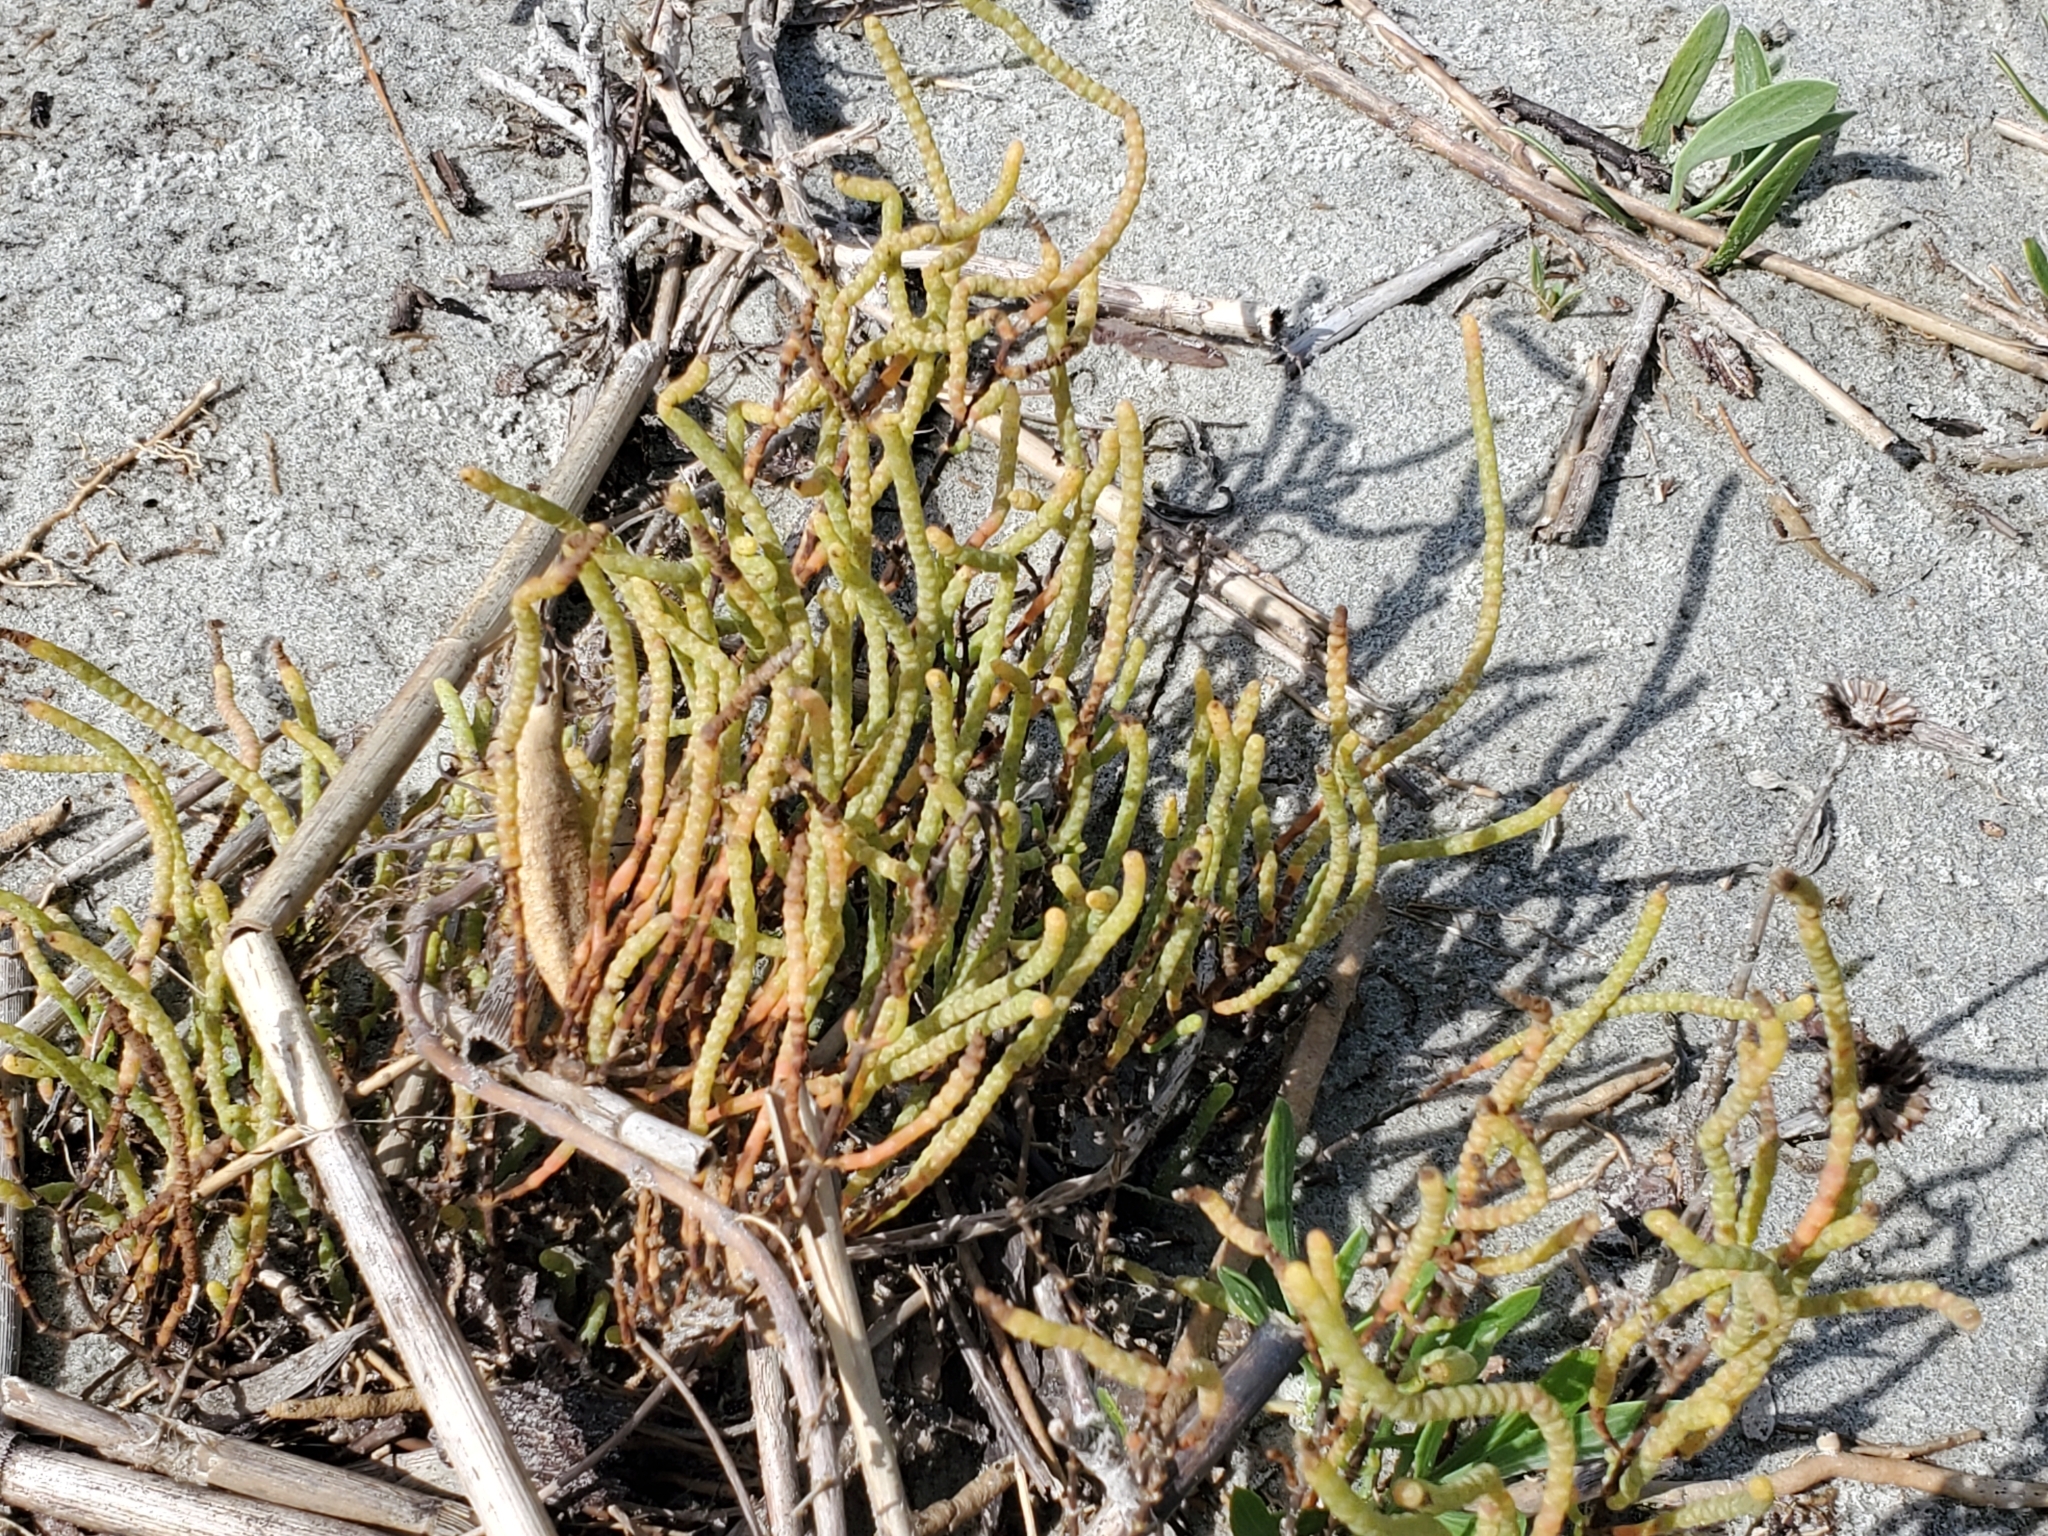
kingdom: Plantae
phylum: Tracheophyta
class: Magnoliopsida
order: Caryophyllales
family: Amaranthaceae
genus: Salicornia
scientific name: Salicornia bigelovii
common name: Dwarf glasswort
